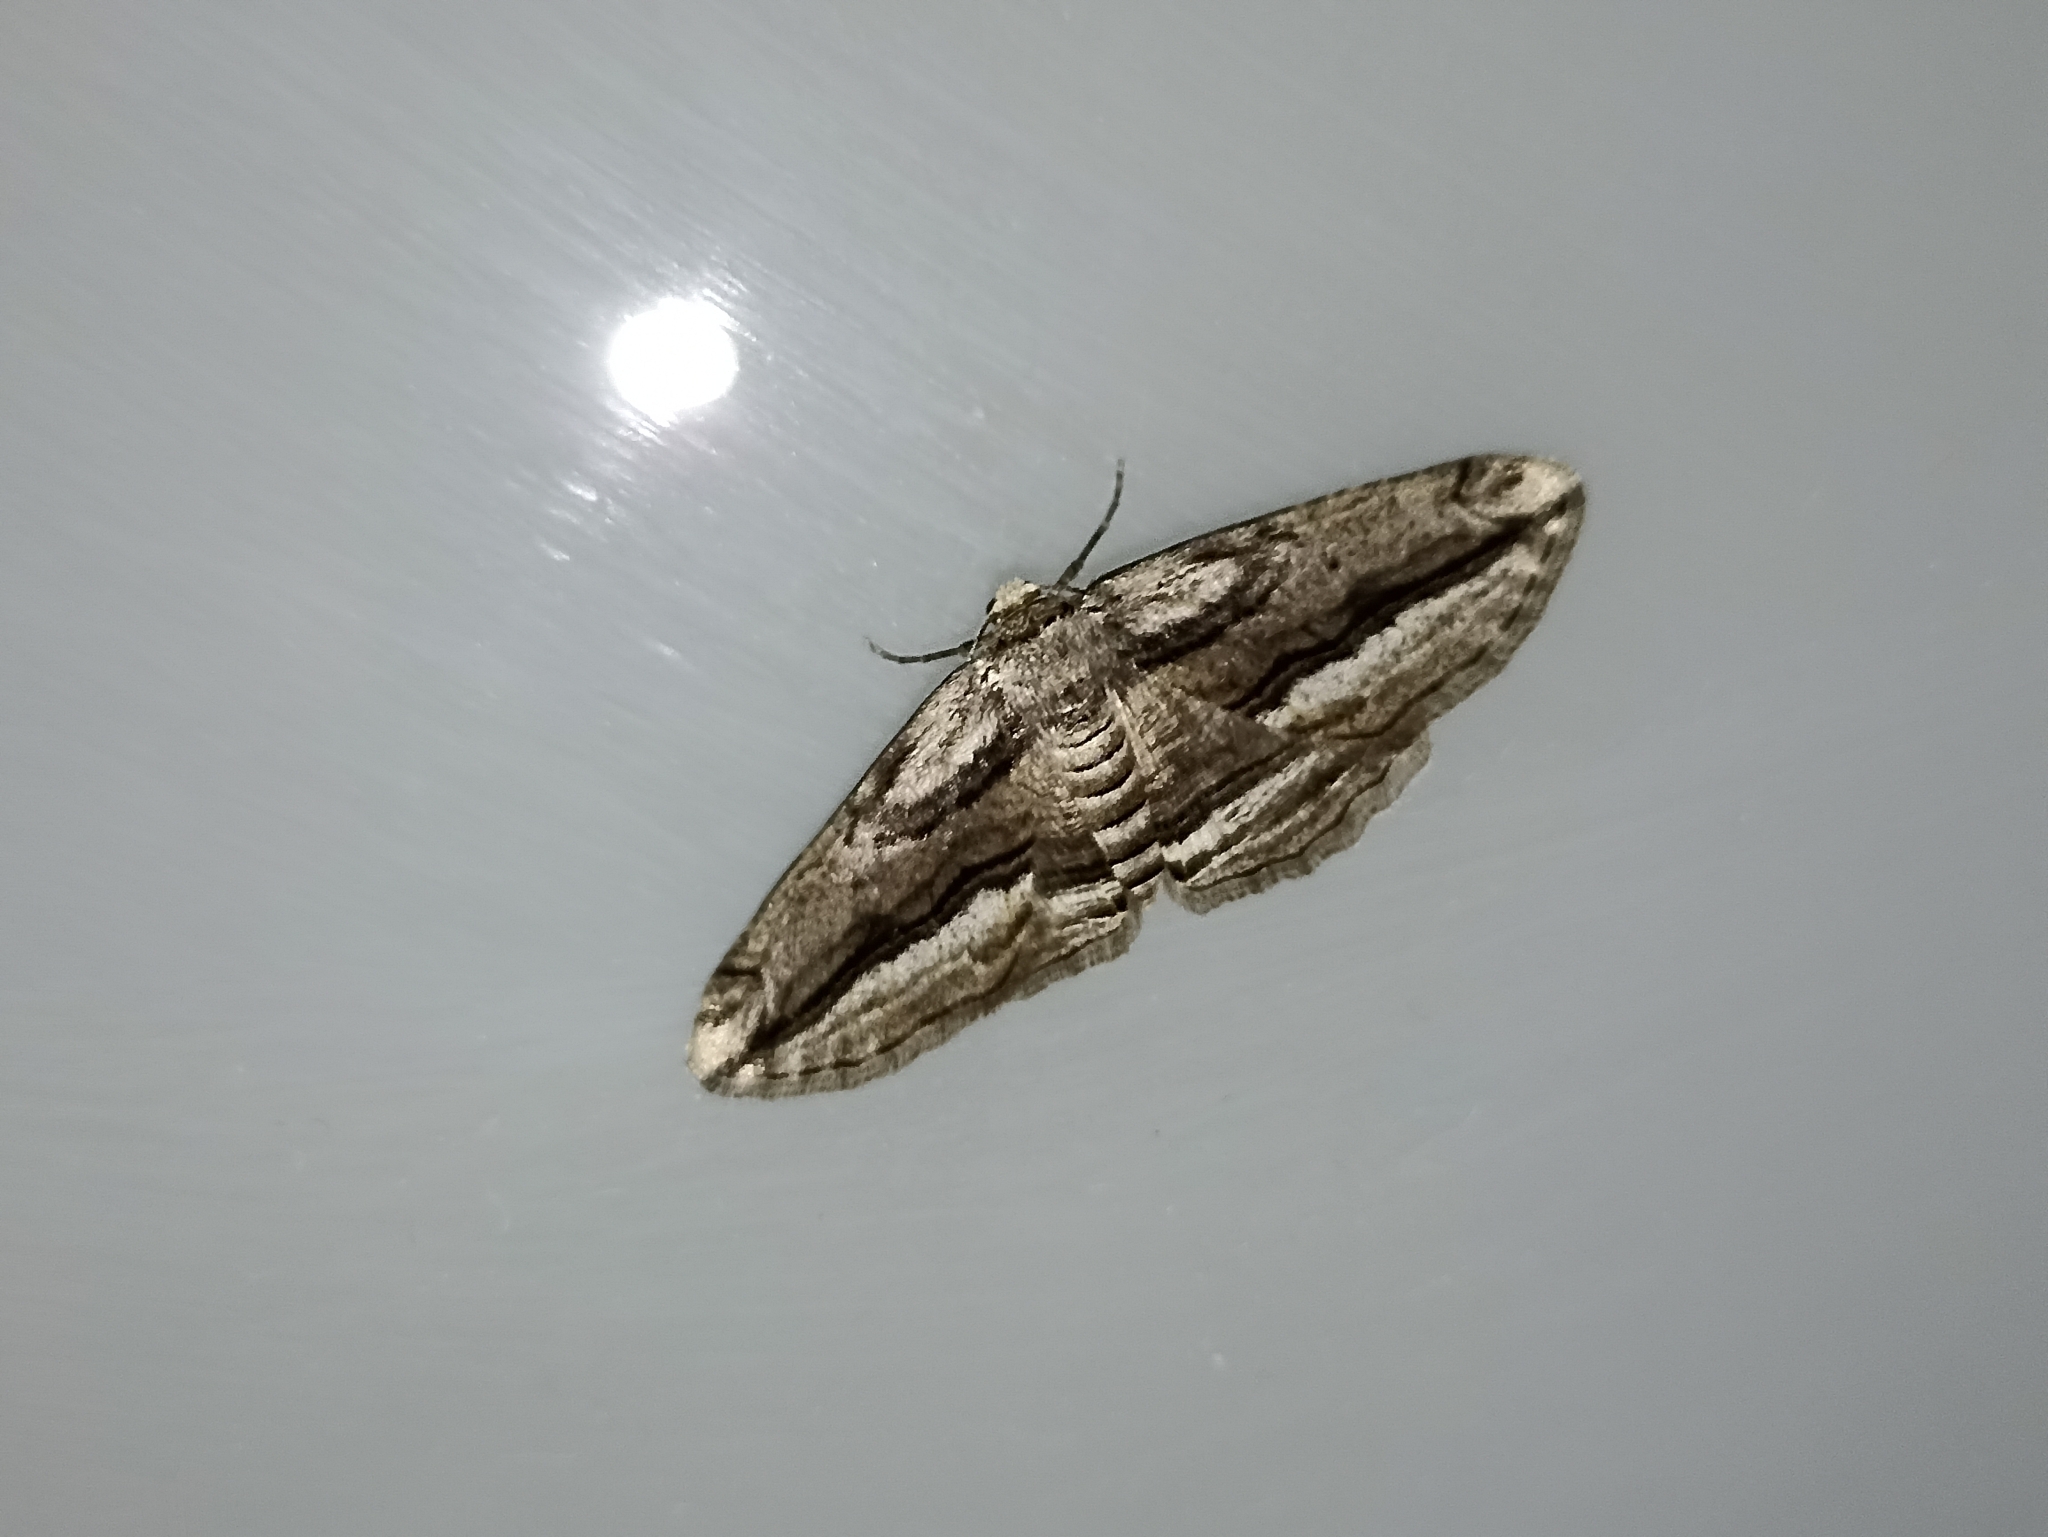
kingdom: Animalia
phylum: Arthropoda
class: Insecta
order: Lepidoptera
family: Geometridae
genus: Ecleora
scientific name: Ecleora solieraria
